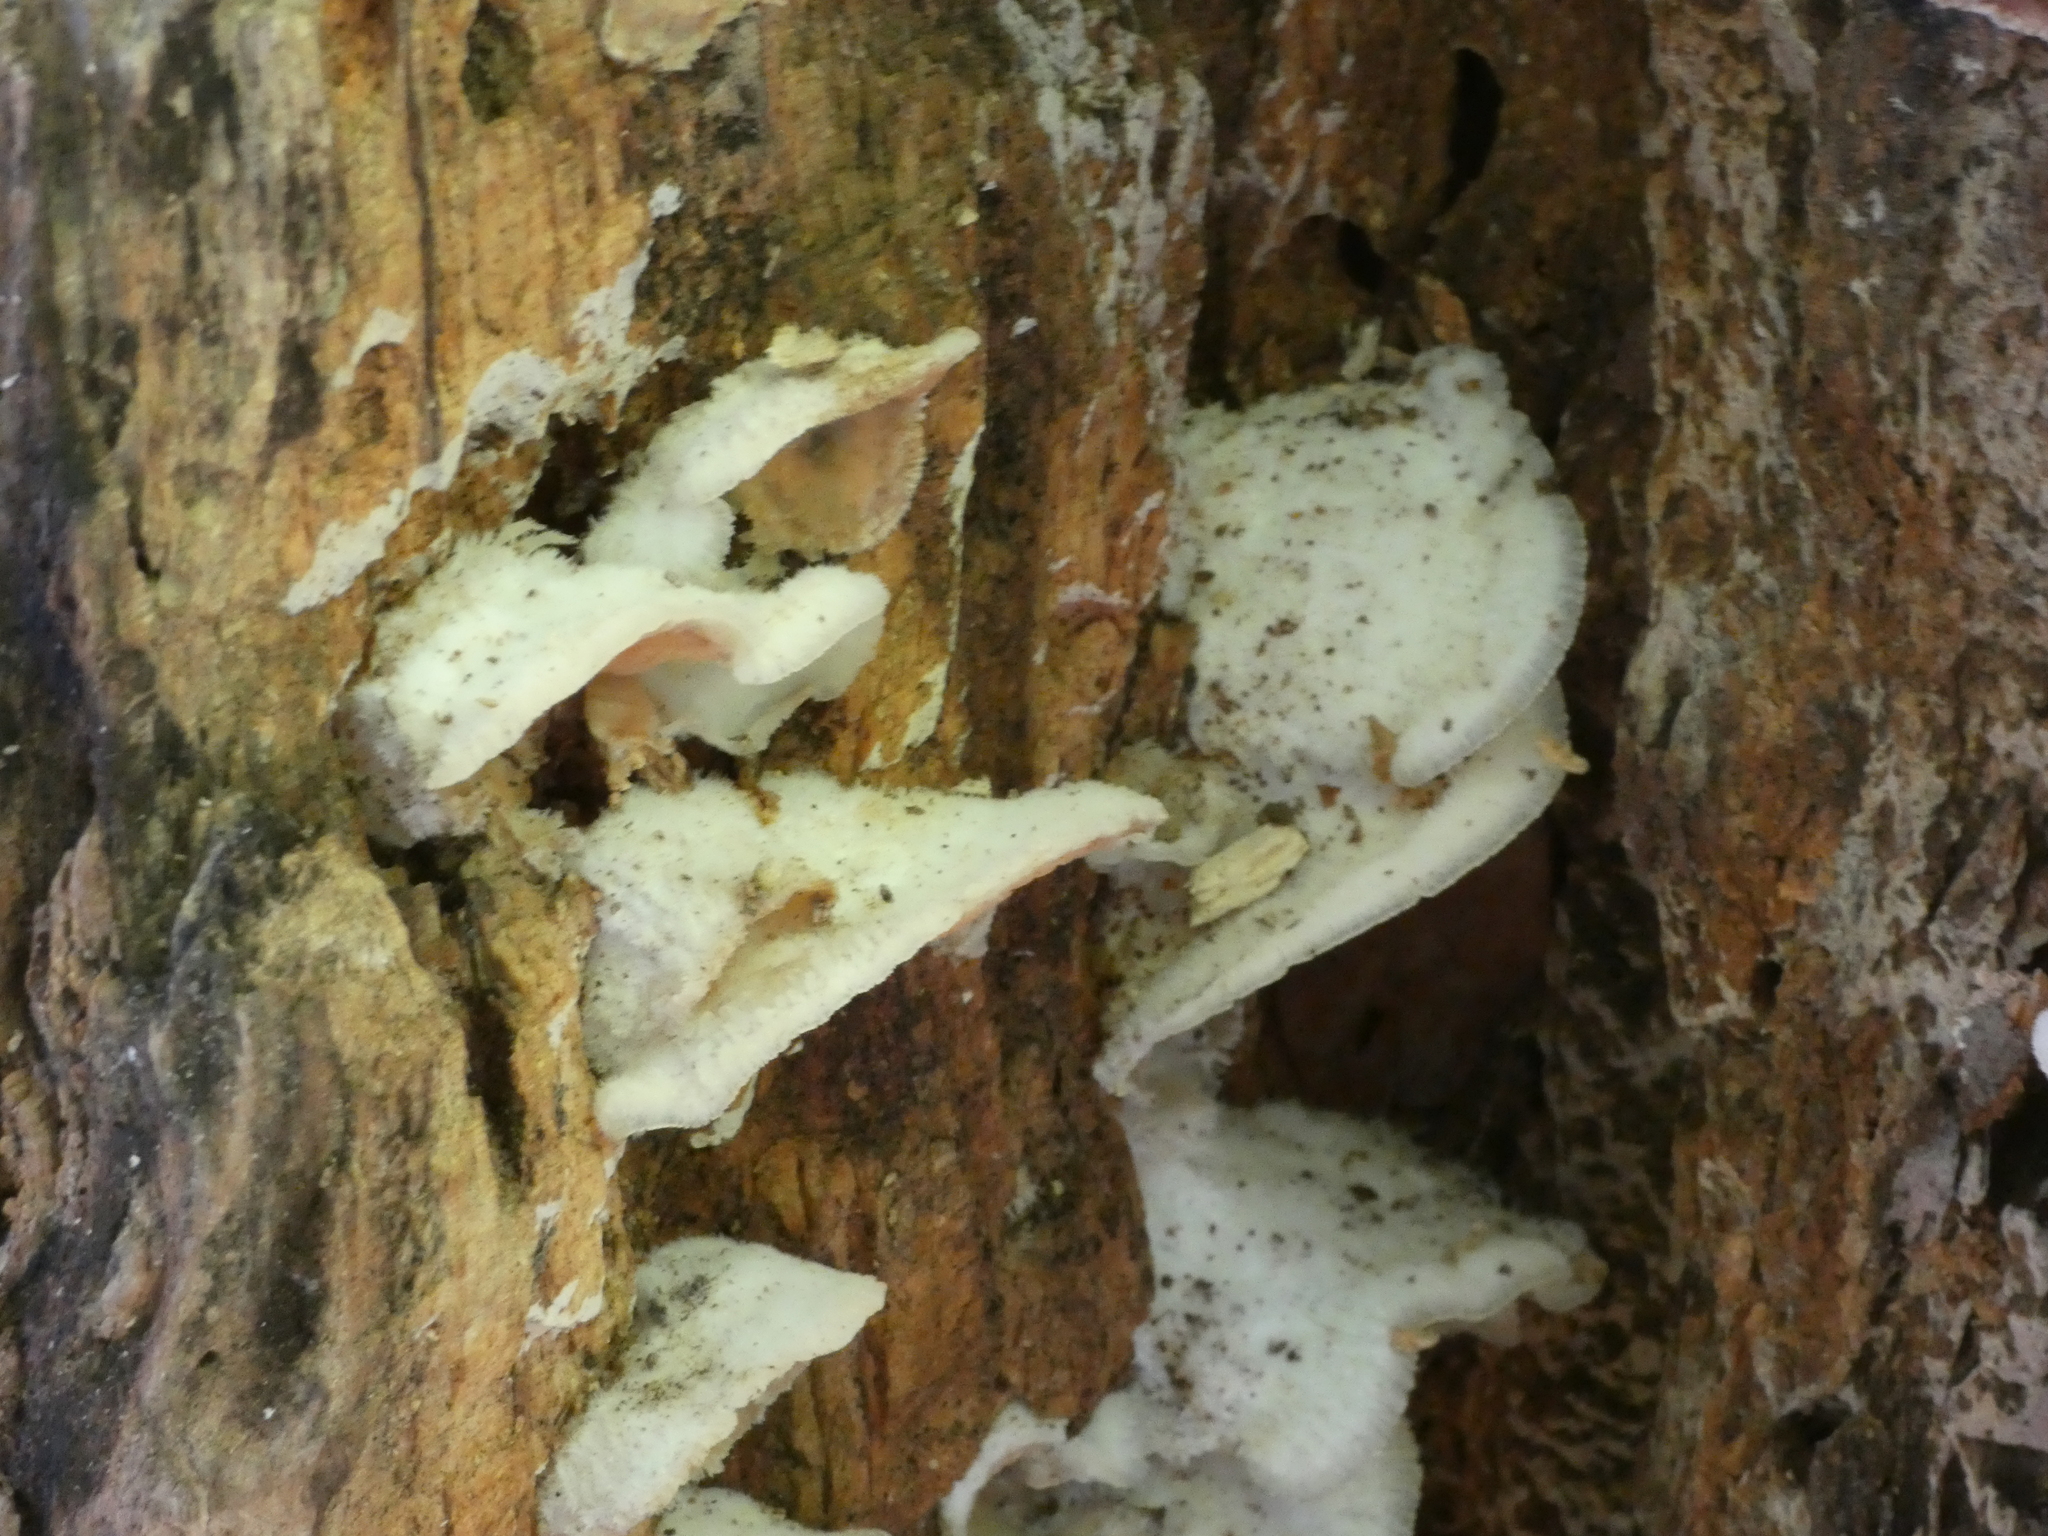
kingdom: Fungi
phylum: Basidiomycota
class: Agaricomycetes
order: Polyporales
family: Meruliaceae
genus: Phlebia
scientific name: Phlebia tremellosa
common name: Jelly rot
